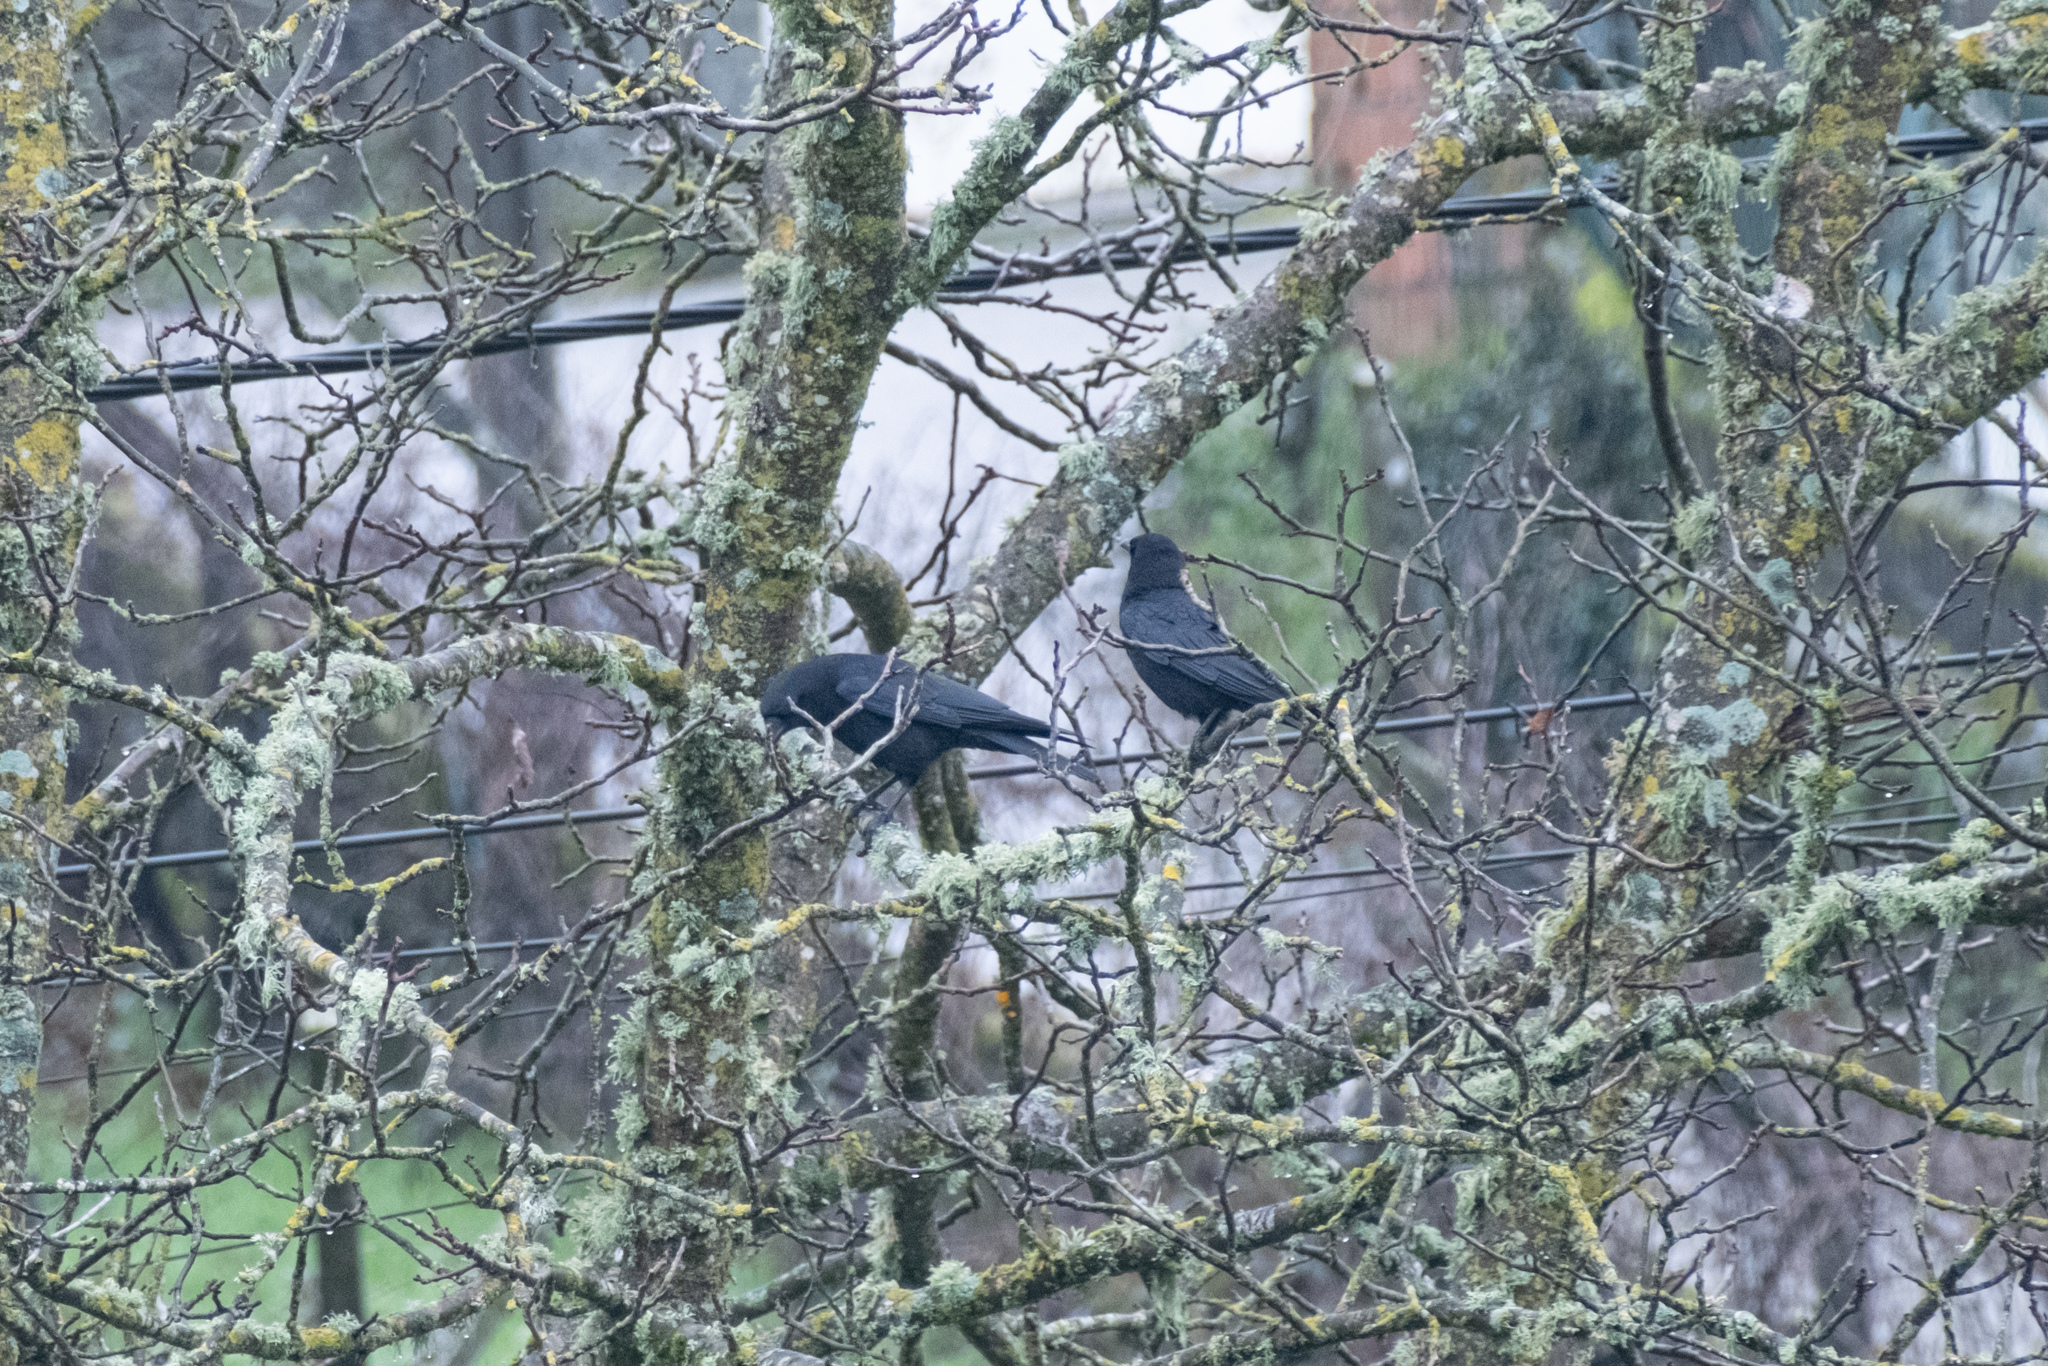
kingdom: Animalia
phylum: Chordata
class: Aves
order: Passeriformes
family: Corvidae
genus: Corvus
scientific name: Corvus corone
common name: Carrion crow
